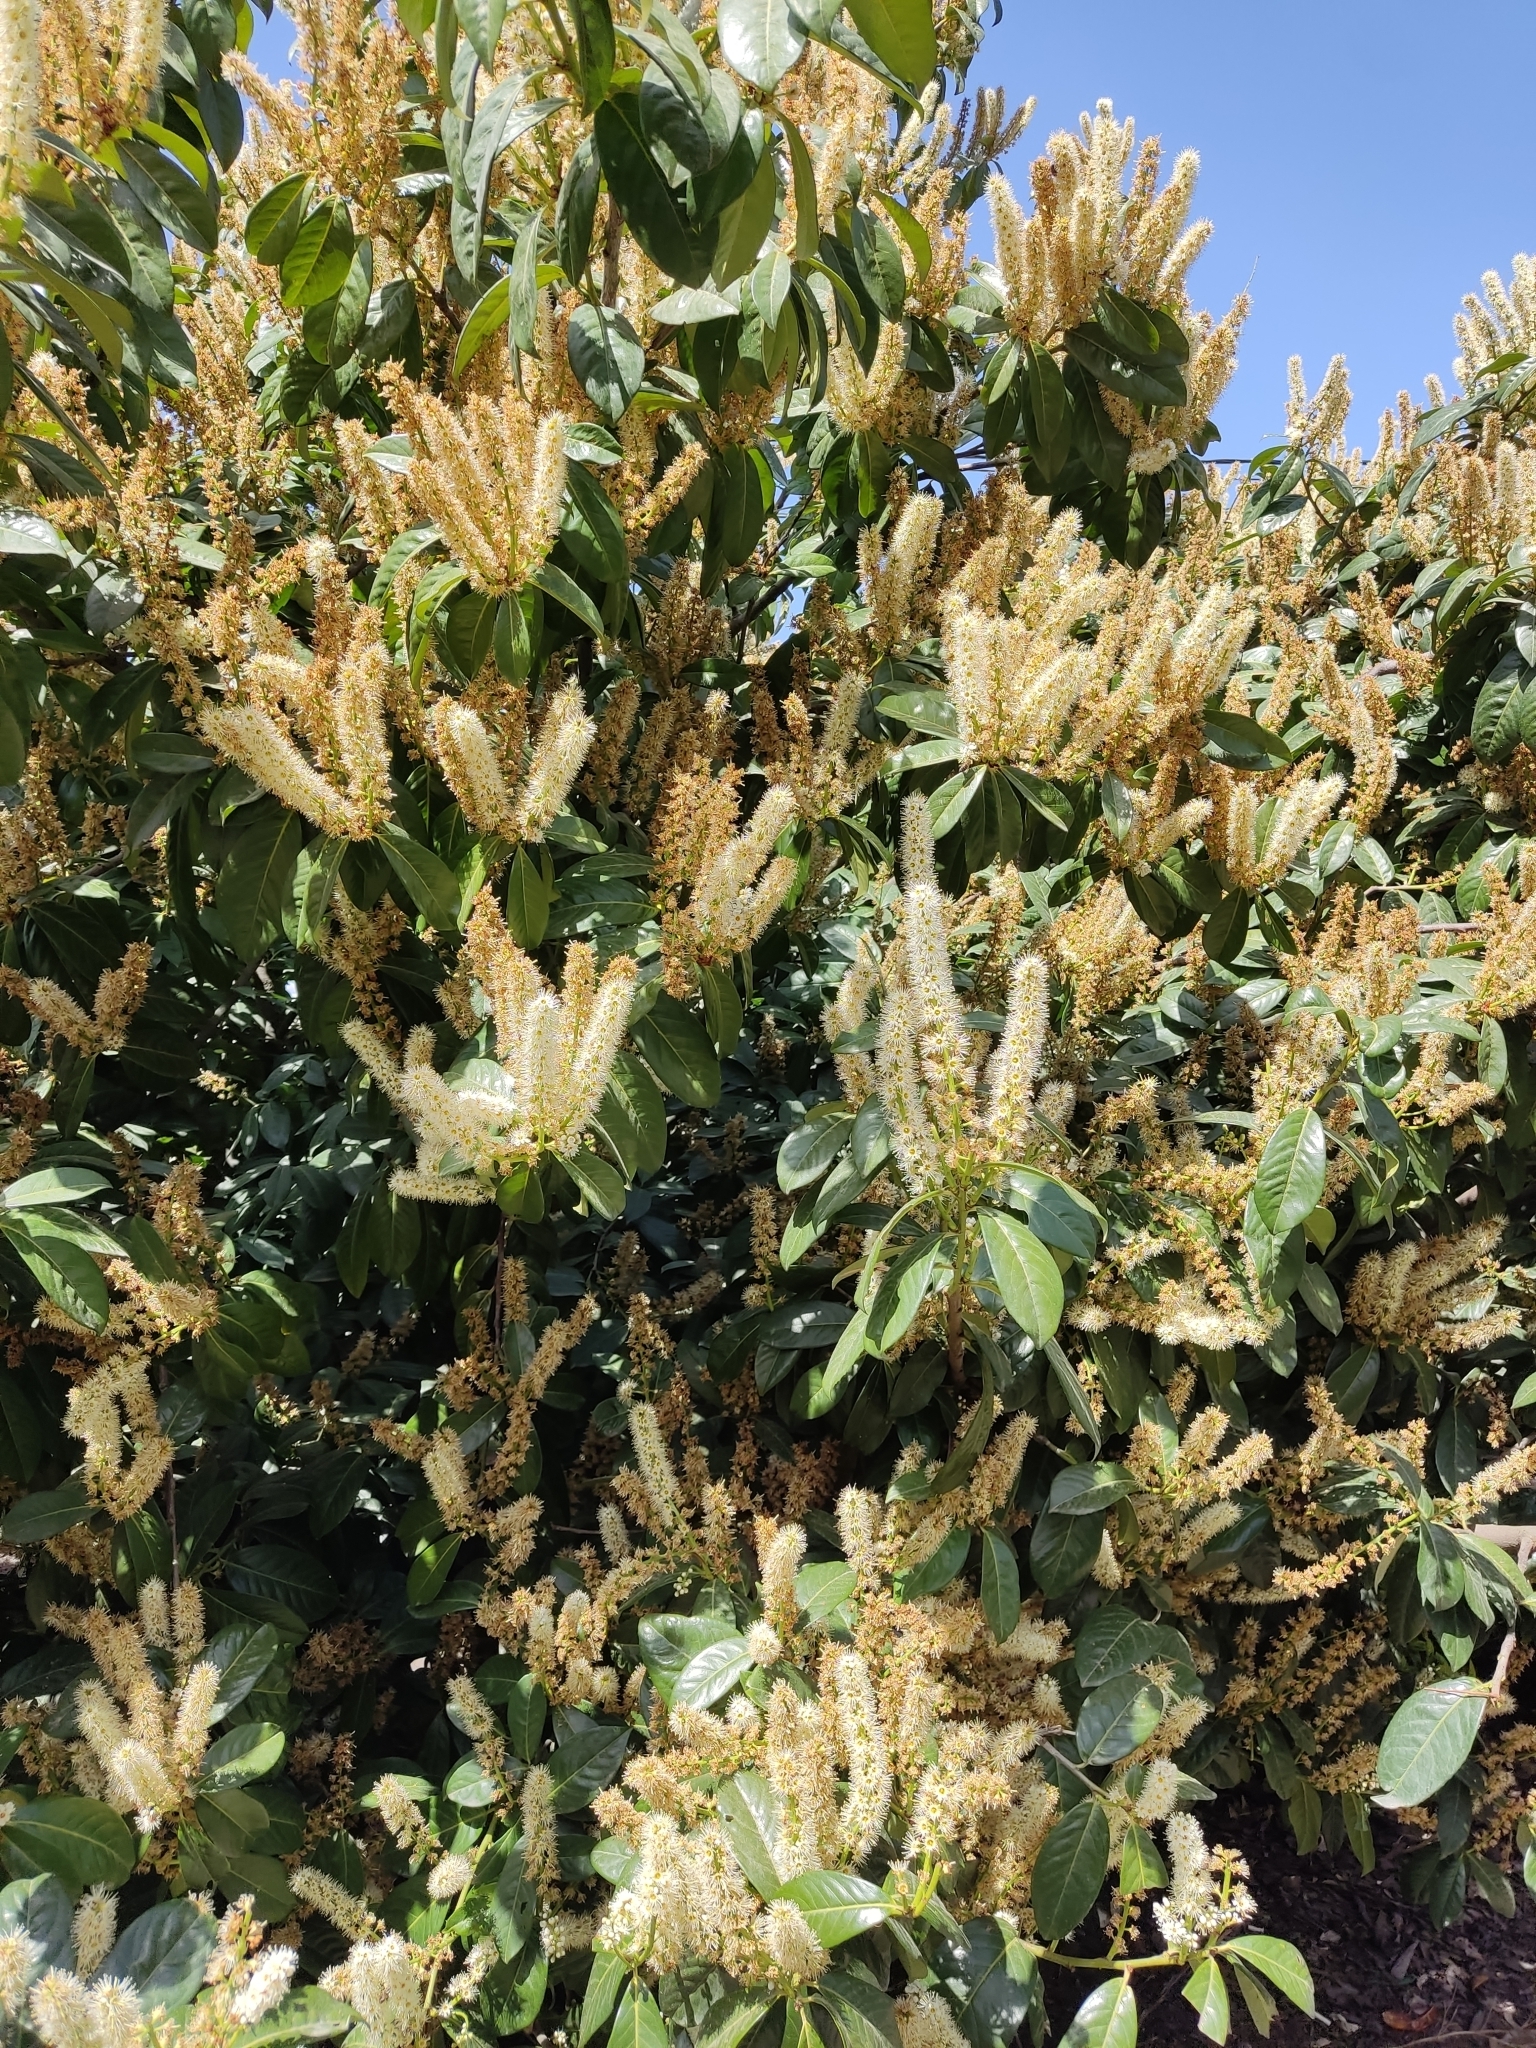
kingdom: Plantae
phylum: Tracheophyta
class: Magnoliopsida
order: Rosales
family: Rosaceae
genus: Prunus
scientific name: Prunus laurocerasus
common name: Cherry laurel
